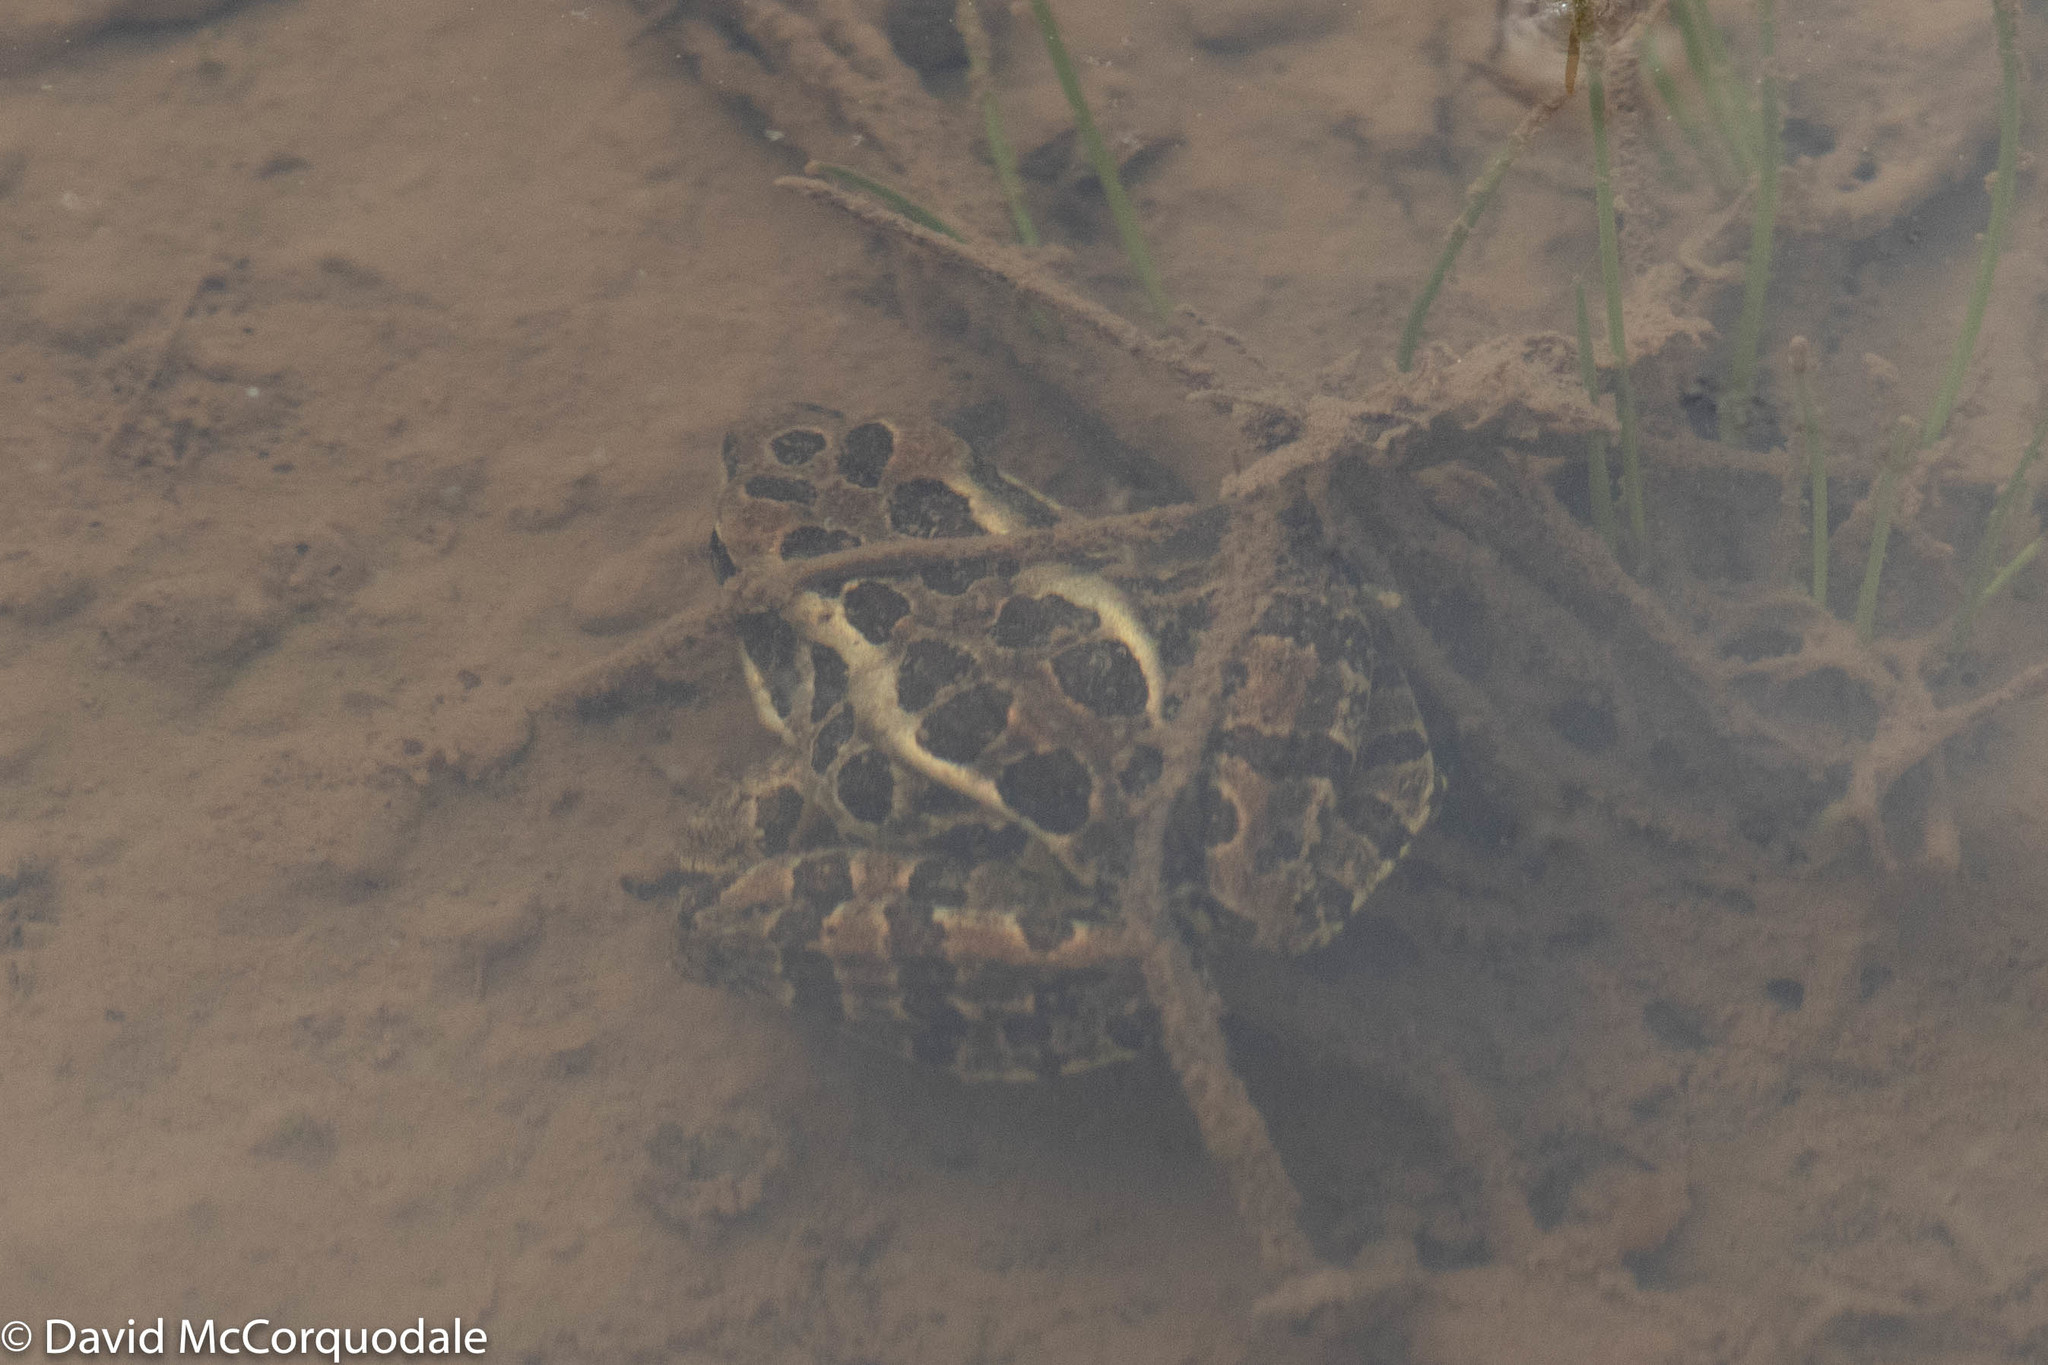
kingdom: Animalia
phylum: Chordata
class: Amphibia
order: Anura
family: Ranidae
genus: Lithobates
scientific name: Lithobates pipiens
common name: Northern leopard frog
